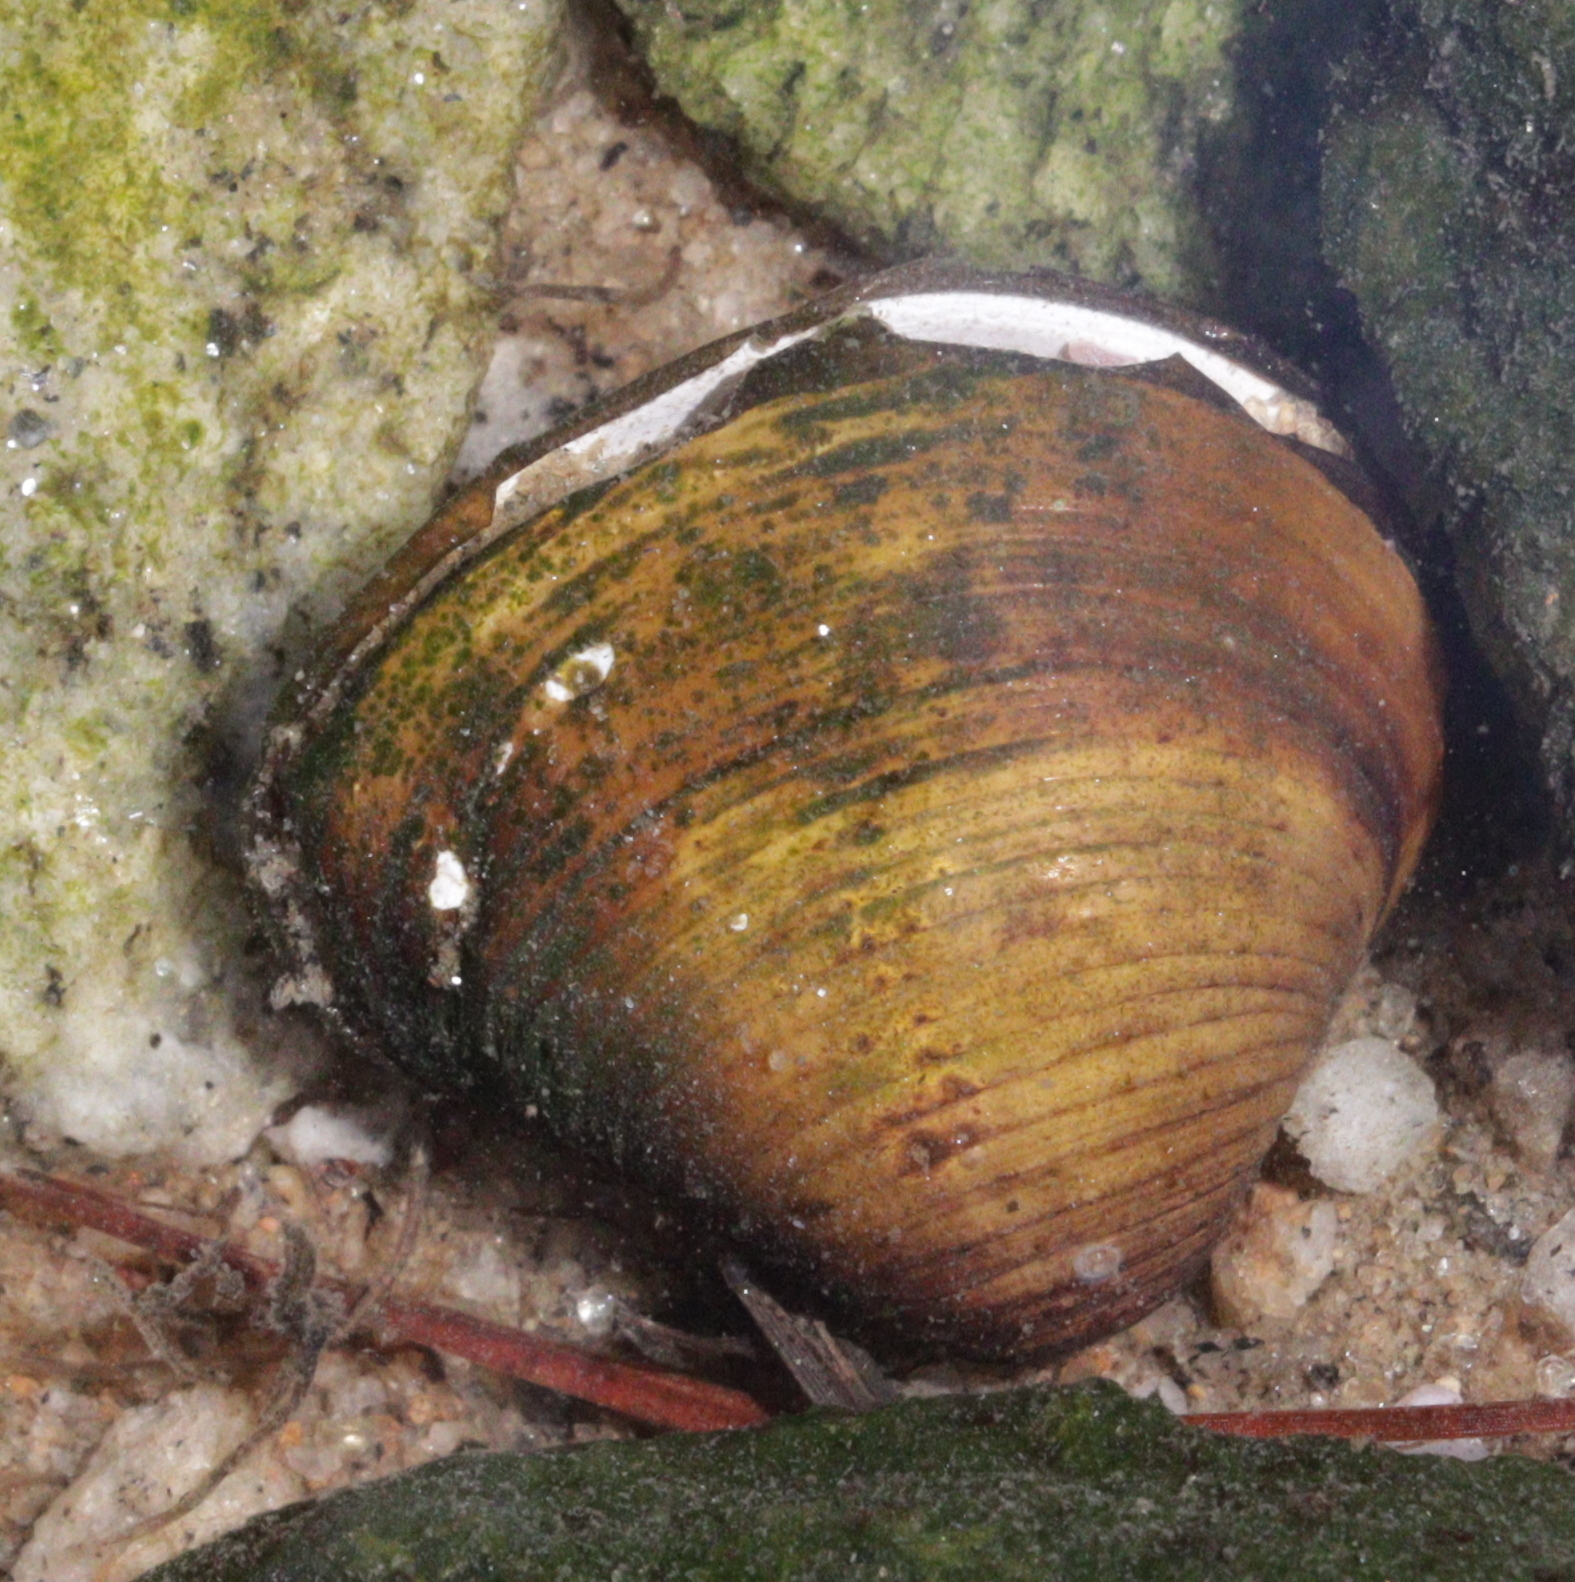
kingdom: Animalia
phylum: Mollusca
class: Bivalvia
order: Venerida
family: Cyrenidae
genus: Corbicula
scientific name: Corbicula fluminea
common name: Asian clam
